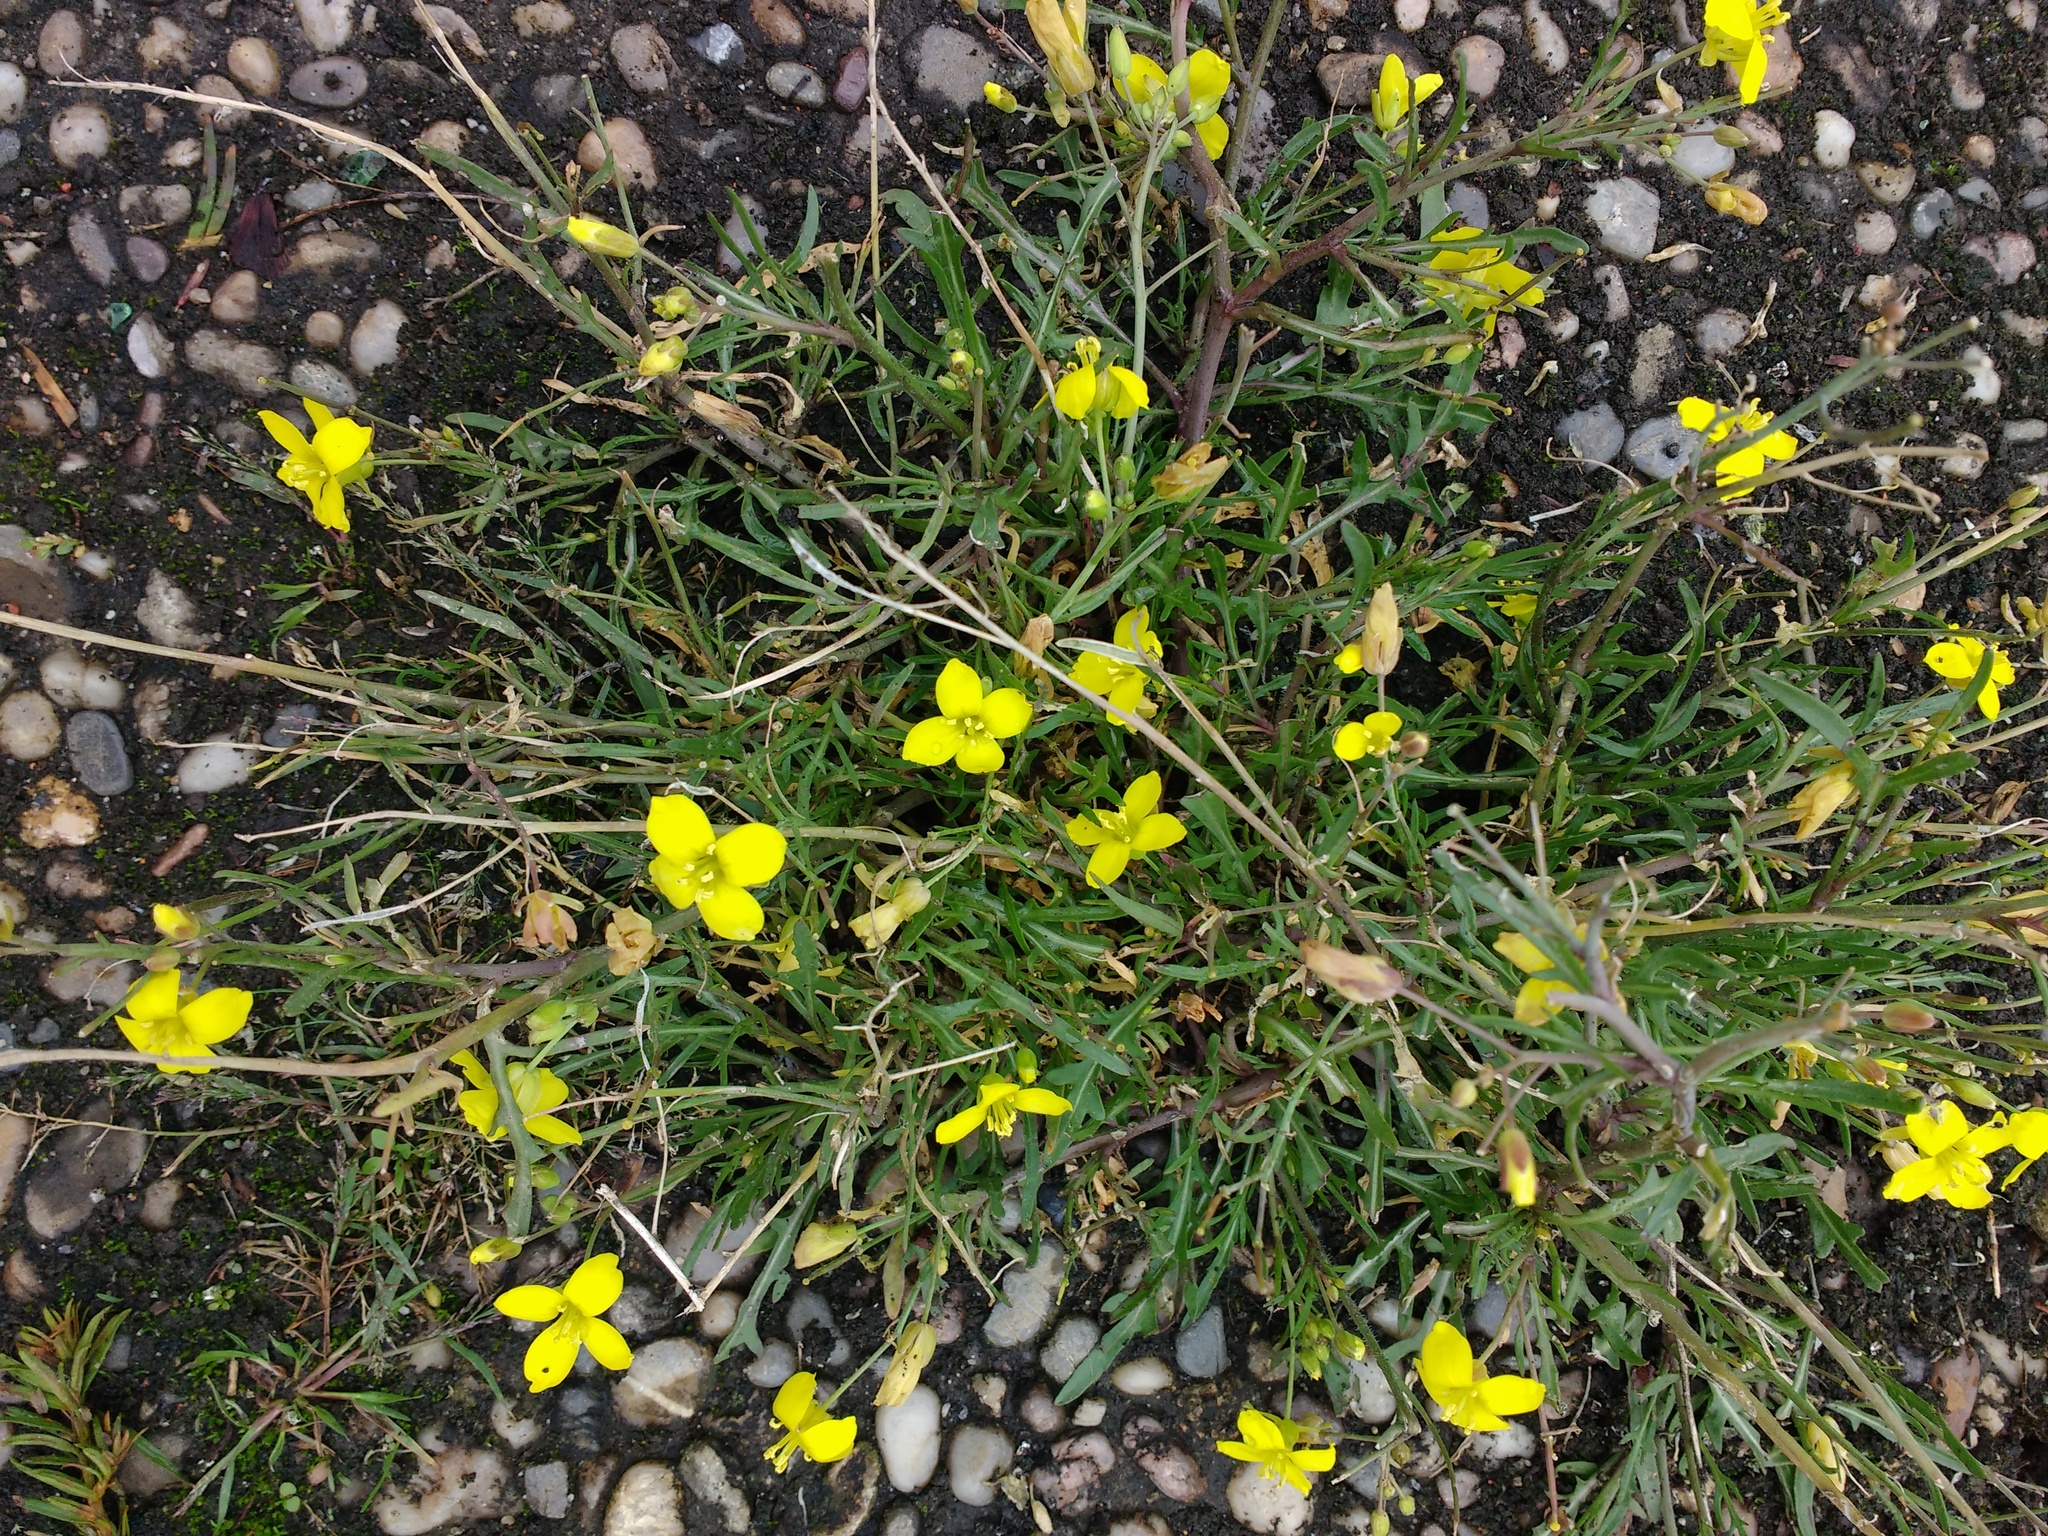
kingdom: Plantae
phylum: Tracheophyta
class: Magnoliopsida
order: Brassicales
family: Brassicaceae
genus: Diplotaxis
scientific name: Diplotaxis tenuifolia
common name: Perennial wall-rocket
